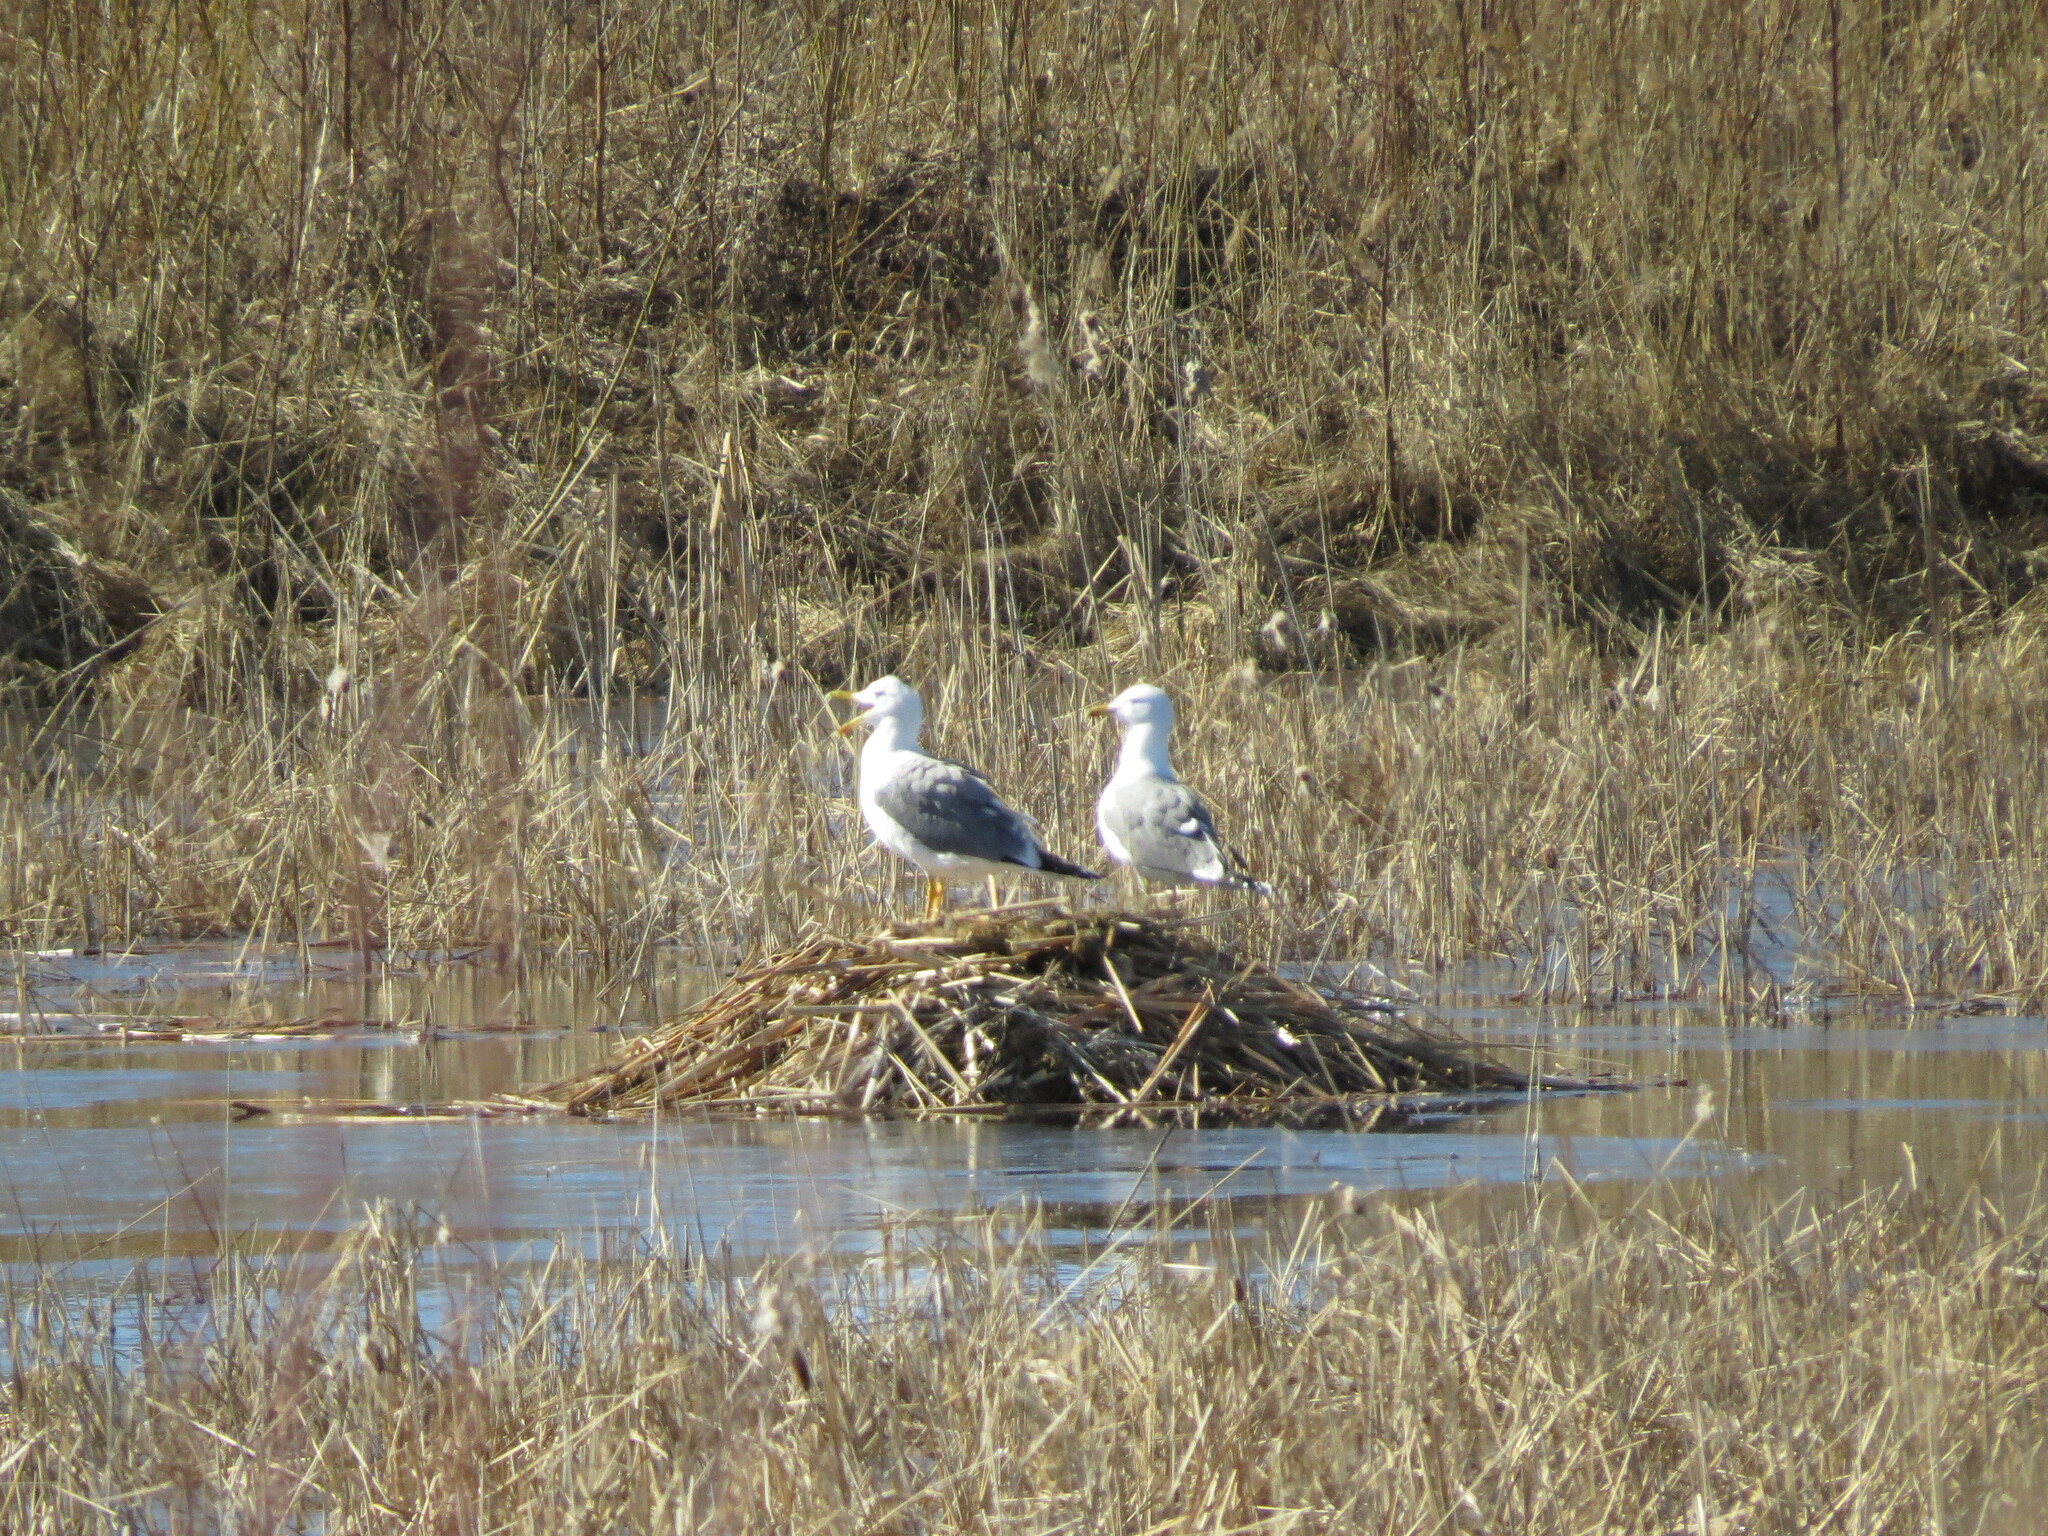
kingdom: Animalia
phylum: Chordata
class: Aves
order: Charadriiformes
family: Laridae
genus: Larus
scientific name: Larus fuscus
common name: Lesser black-backed gull
